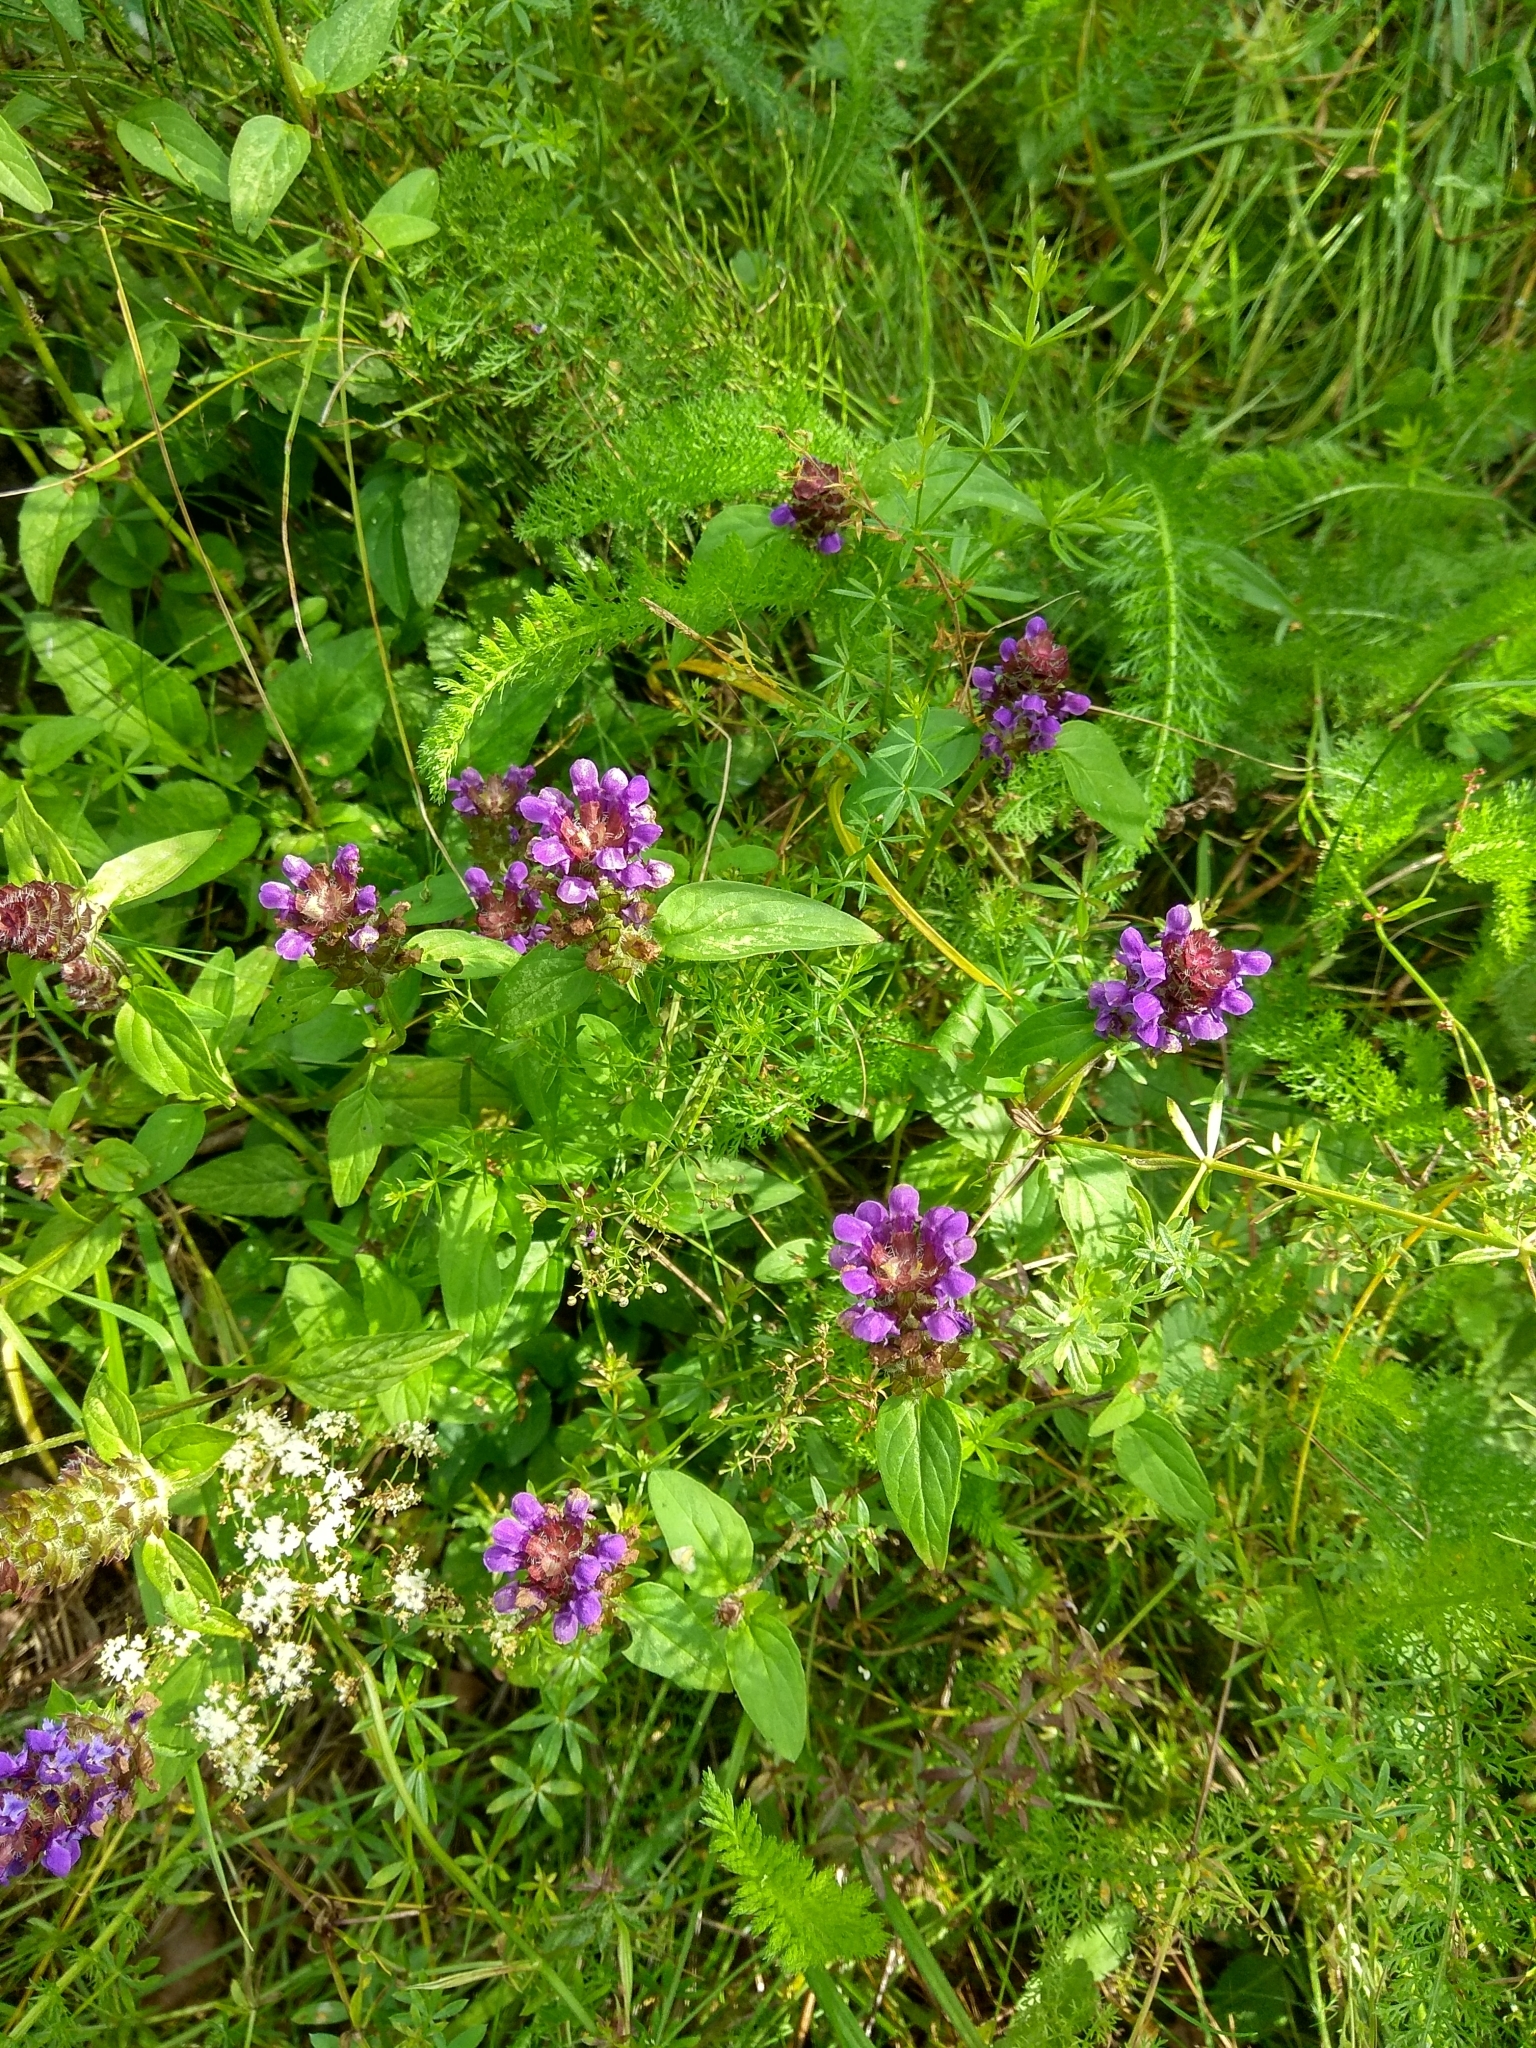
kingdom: Plantae
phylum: Tracheophyta
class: Magnoliopsida
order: Lamiales
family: Lamiaceae
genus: Prunella
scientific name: Prunella vulgaris
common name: Heal-all
